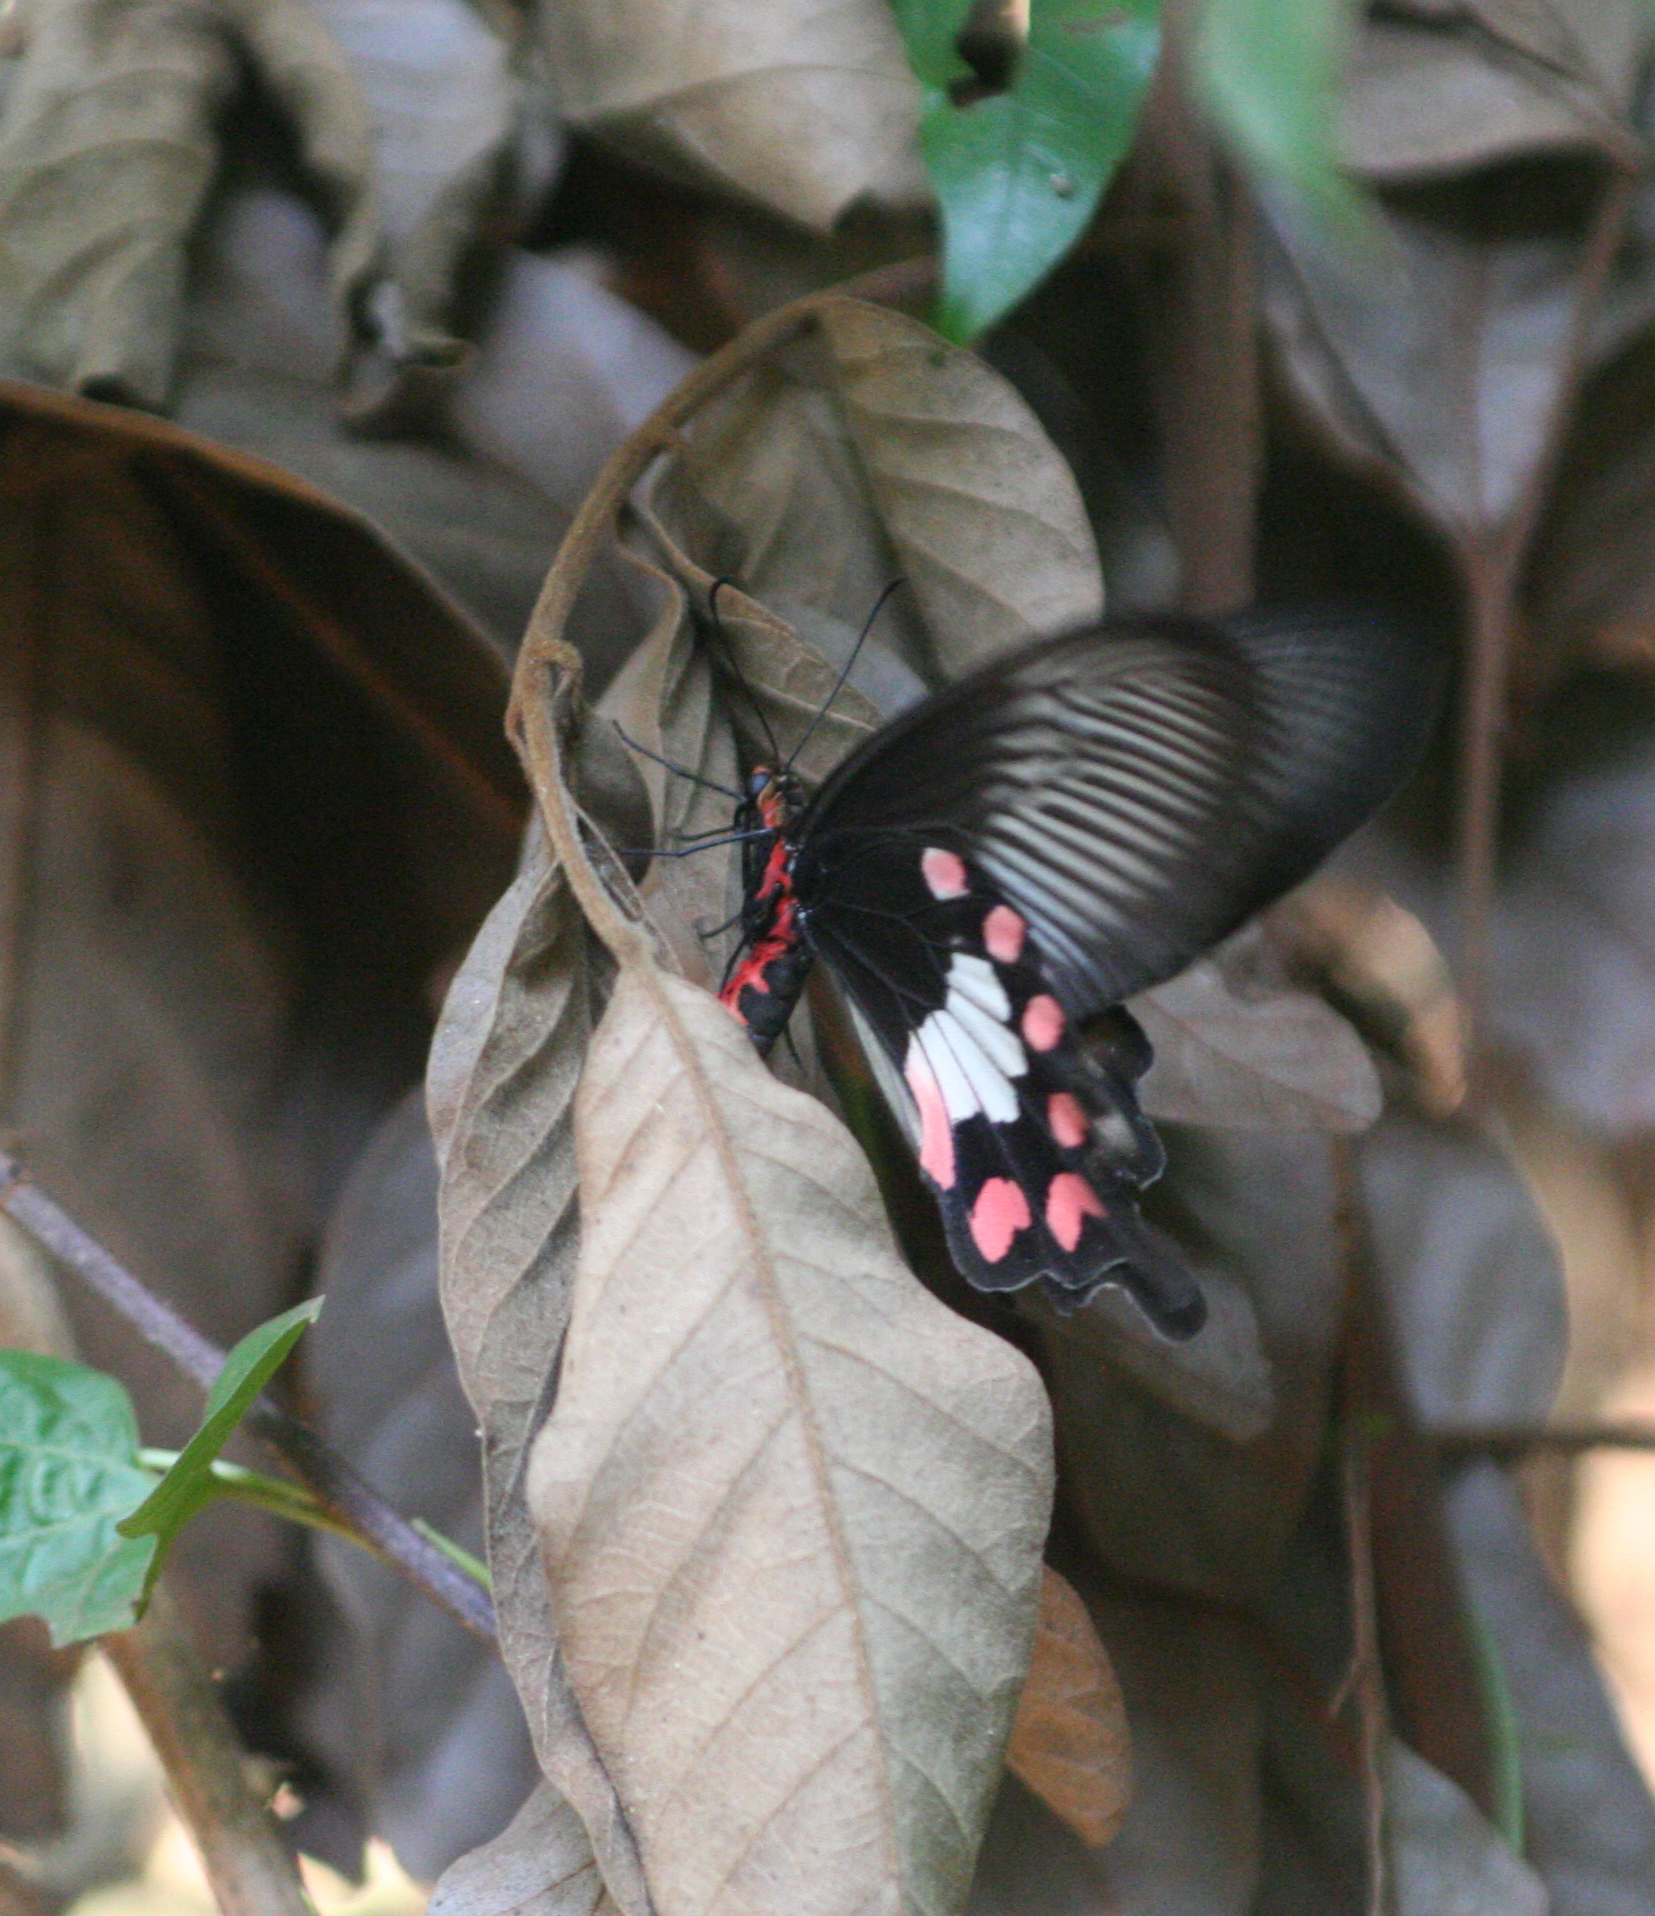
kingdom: Animalia
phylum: Arthropoda
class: Insecta
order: Lepidoptera
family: Papilionidae
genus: Pachliopta
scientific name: Pachliopta aristolochiae
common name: Common rose
